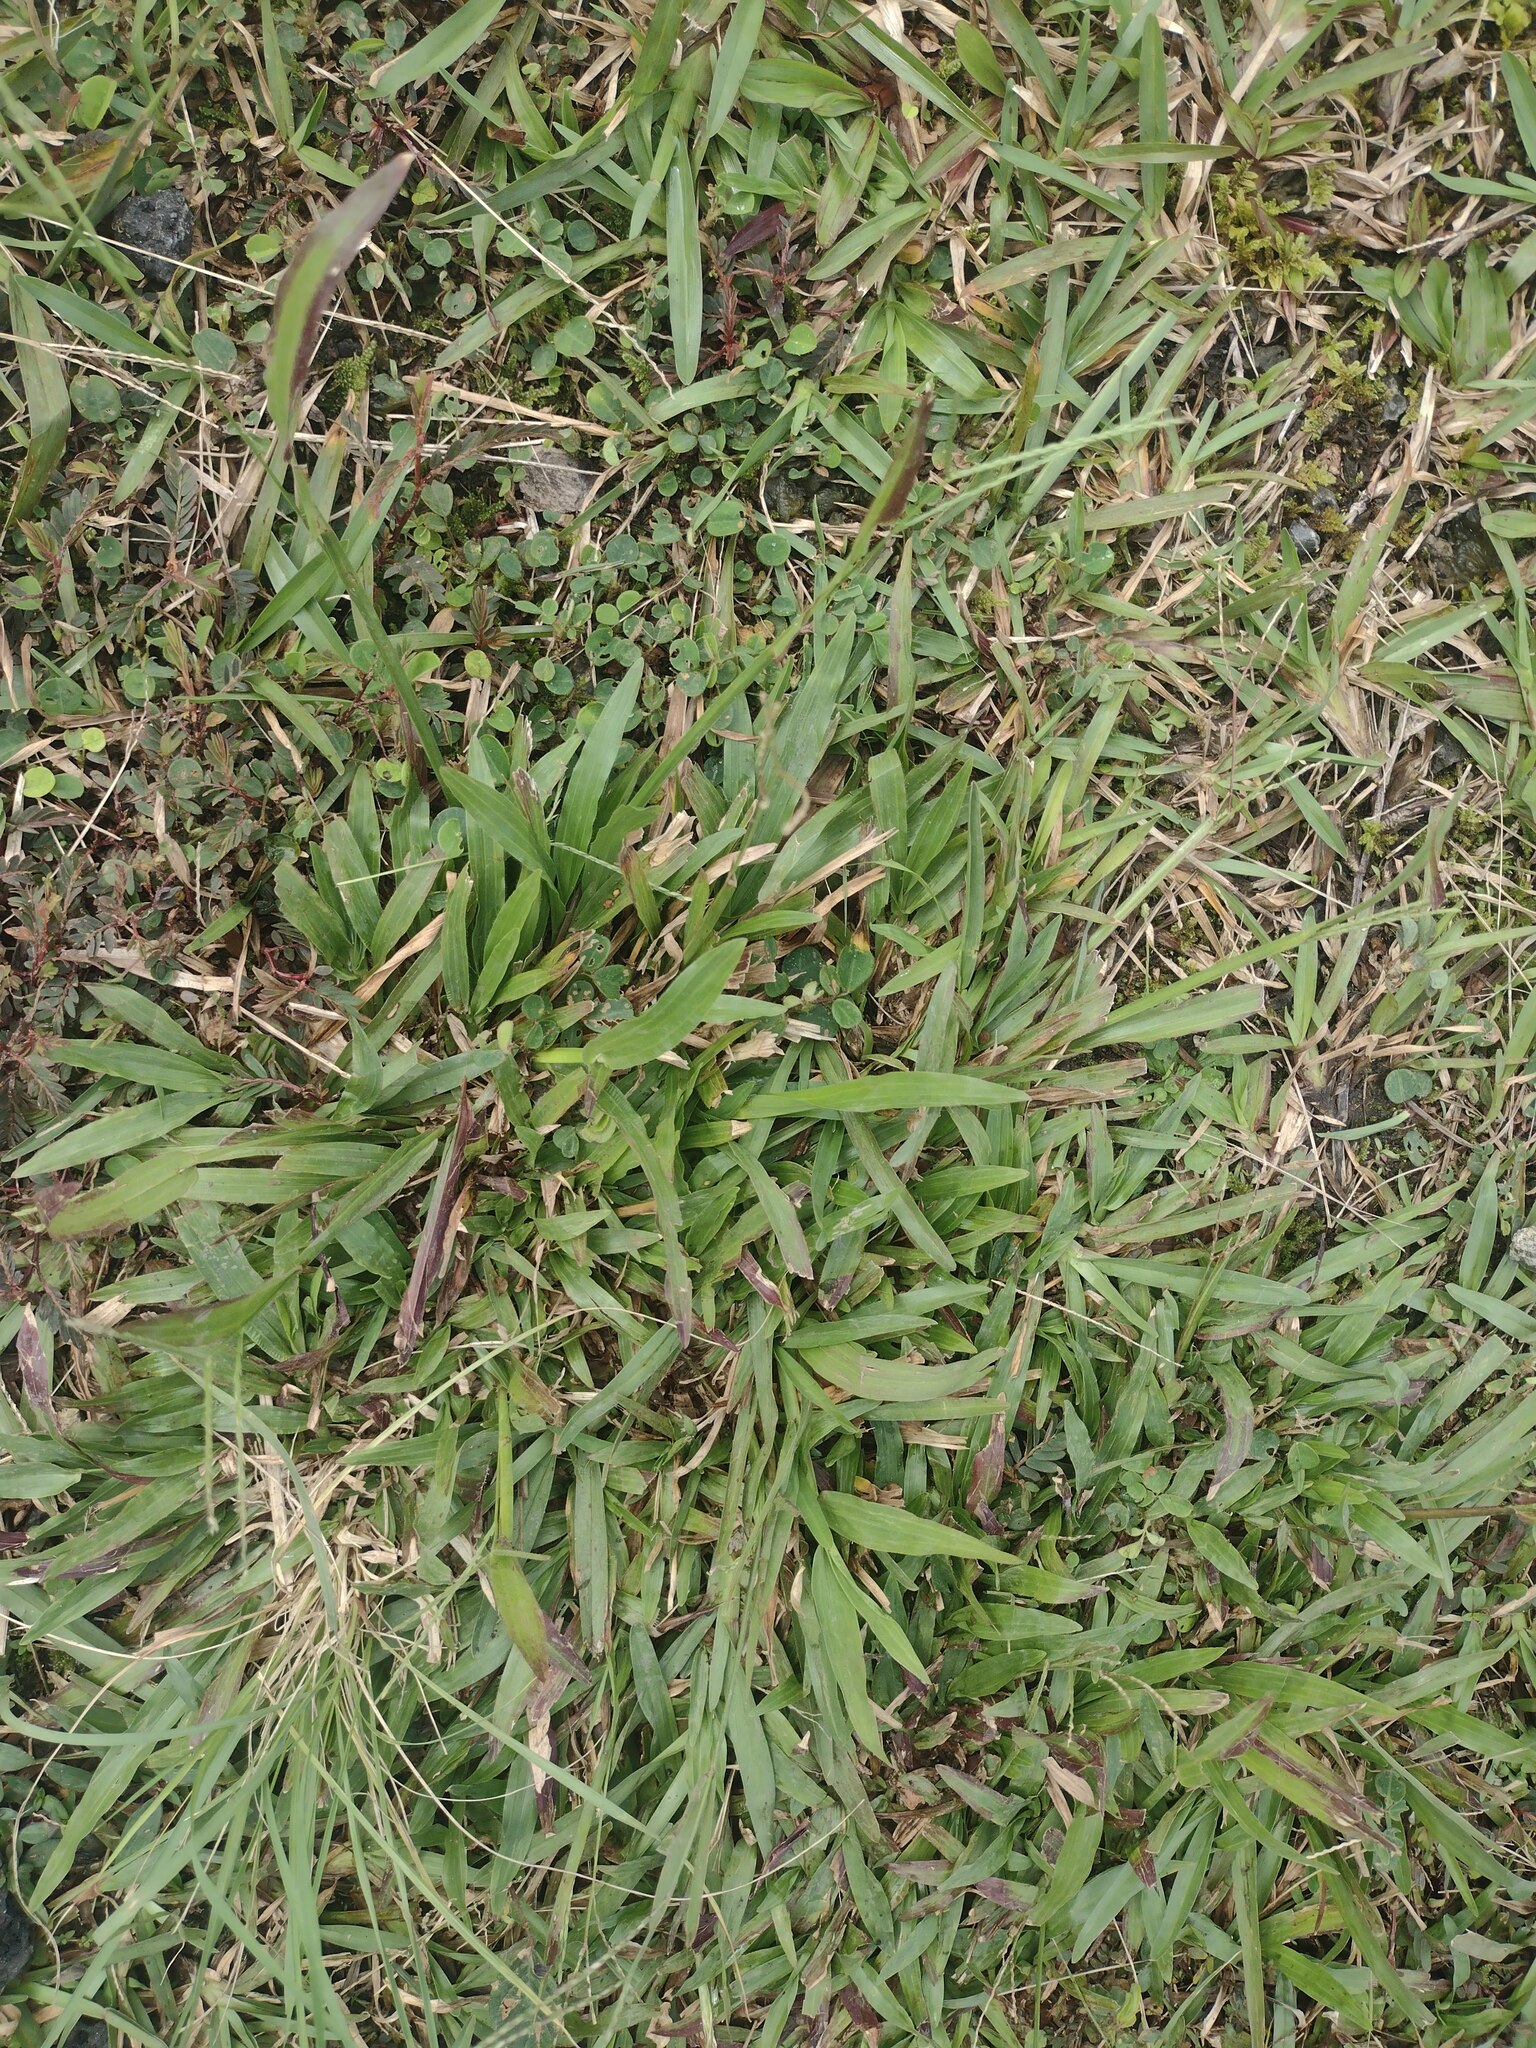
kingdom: Plantae
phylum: Tracheophyta
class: Liliopsida
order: Poales
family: Poaceae
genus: Axonopus
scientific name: Axonopus compressus
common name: American carpet grass
